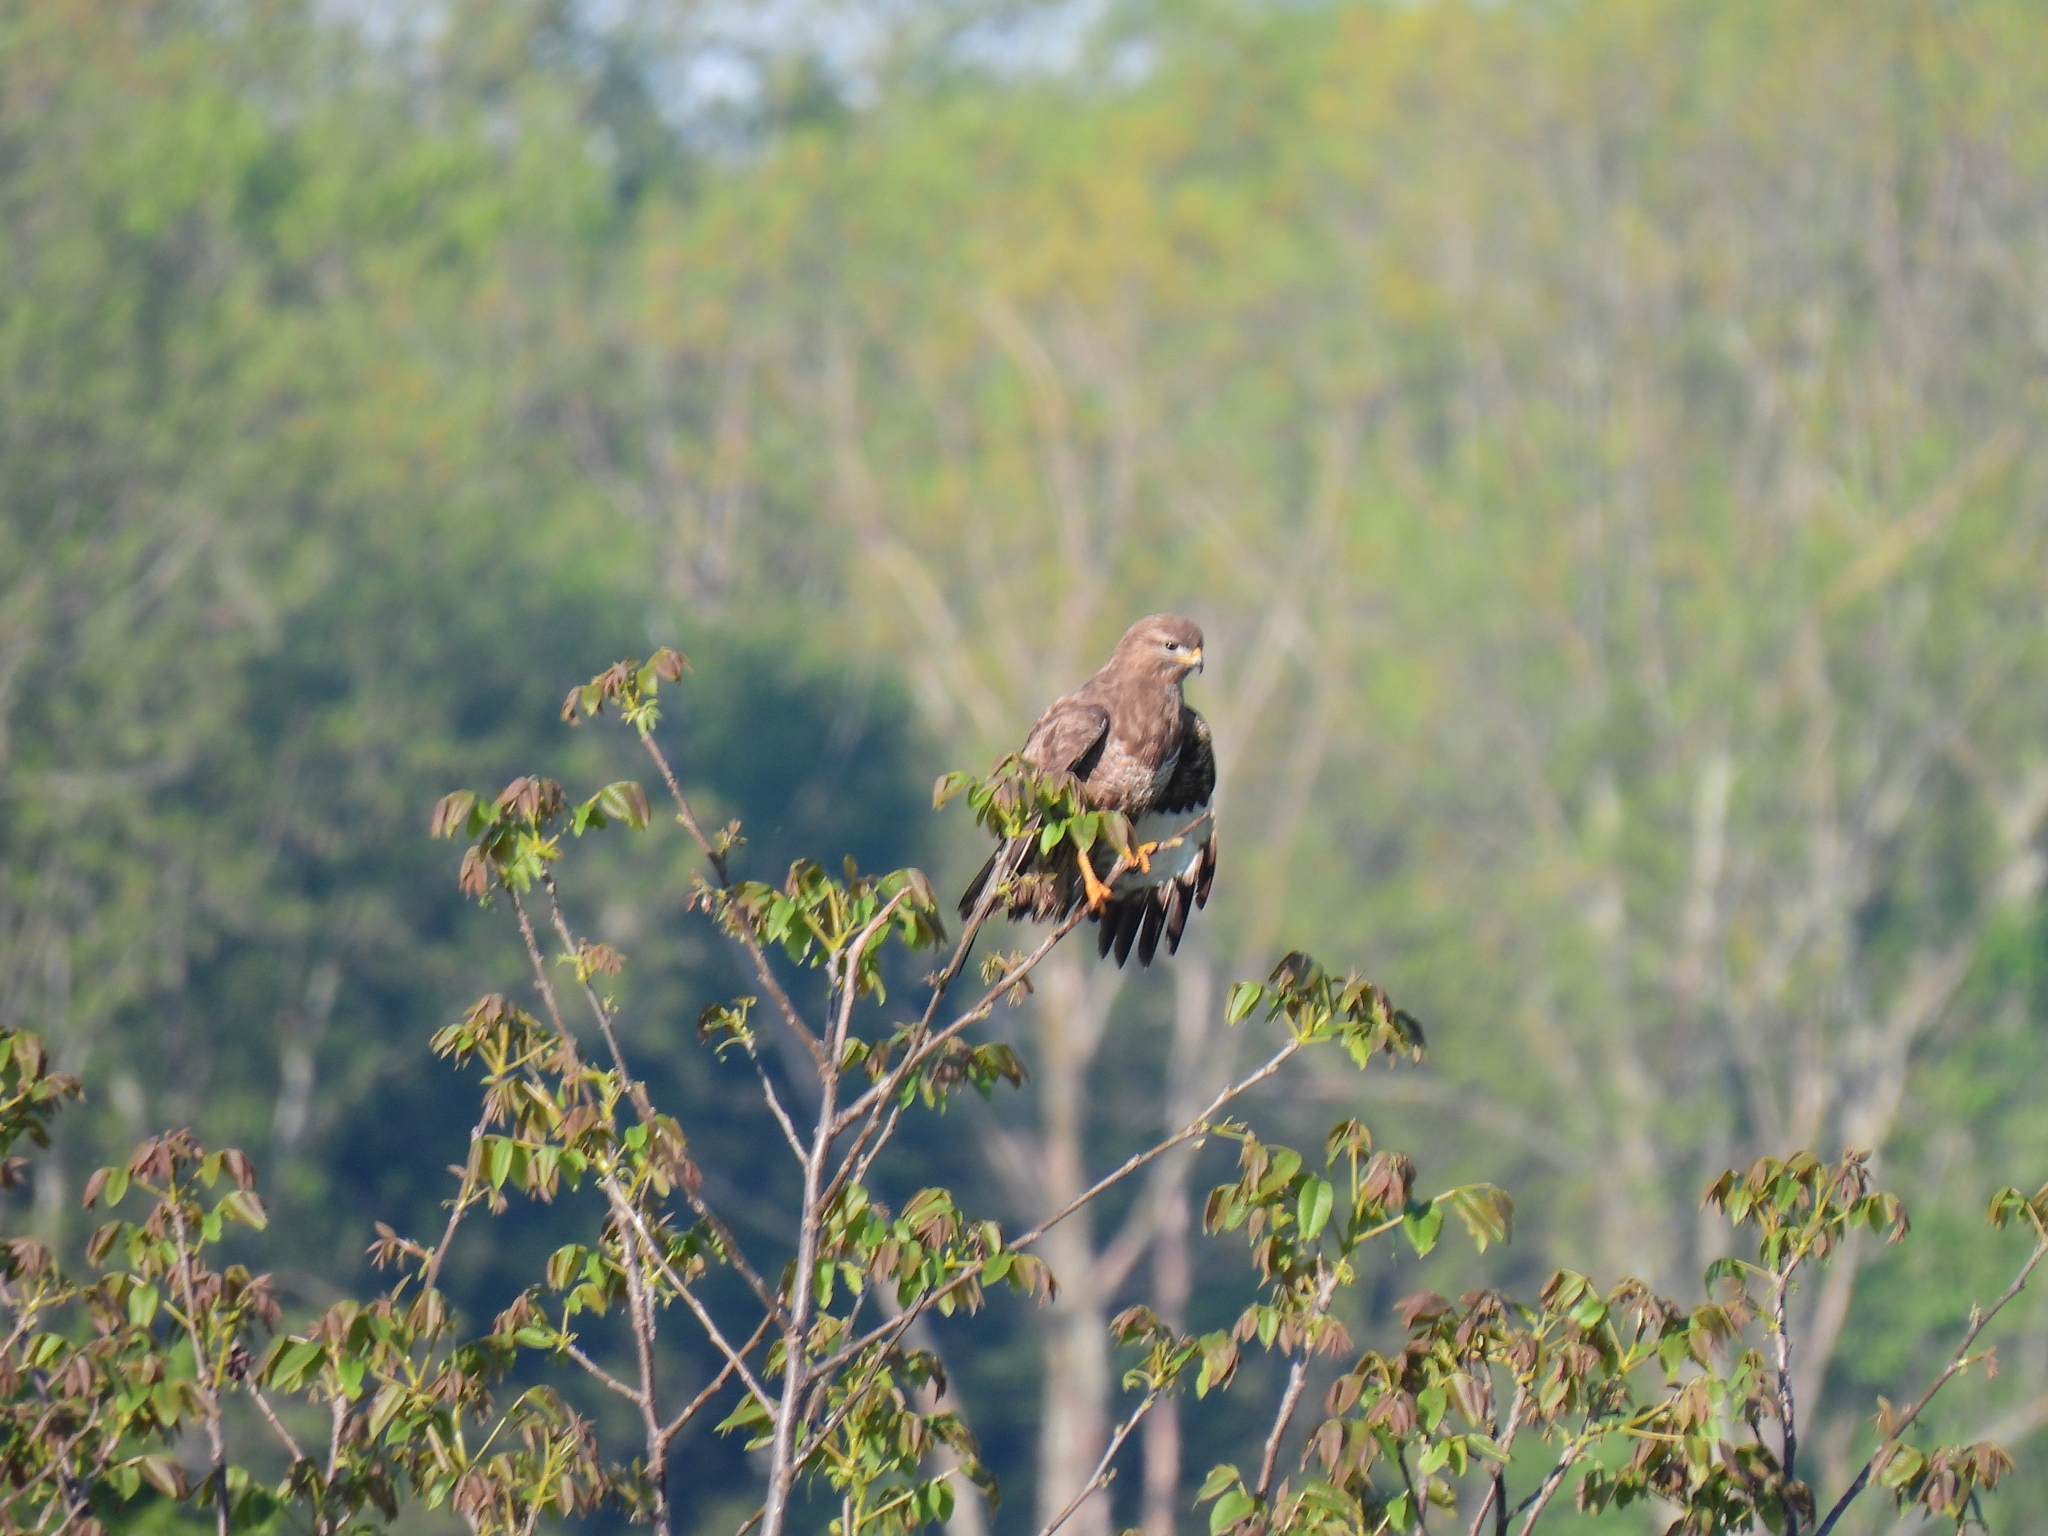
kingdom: Animalia
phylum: Chordata
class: Aves
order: Accipitriformes
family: Accipitridae
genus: Buteo
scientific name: Buteo buteo
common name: Common buzzard
